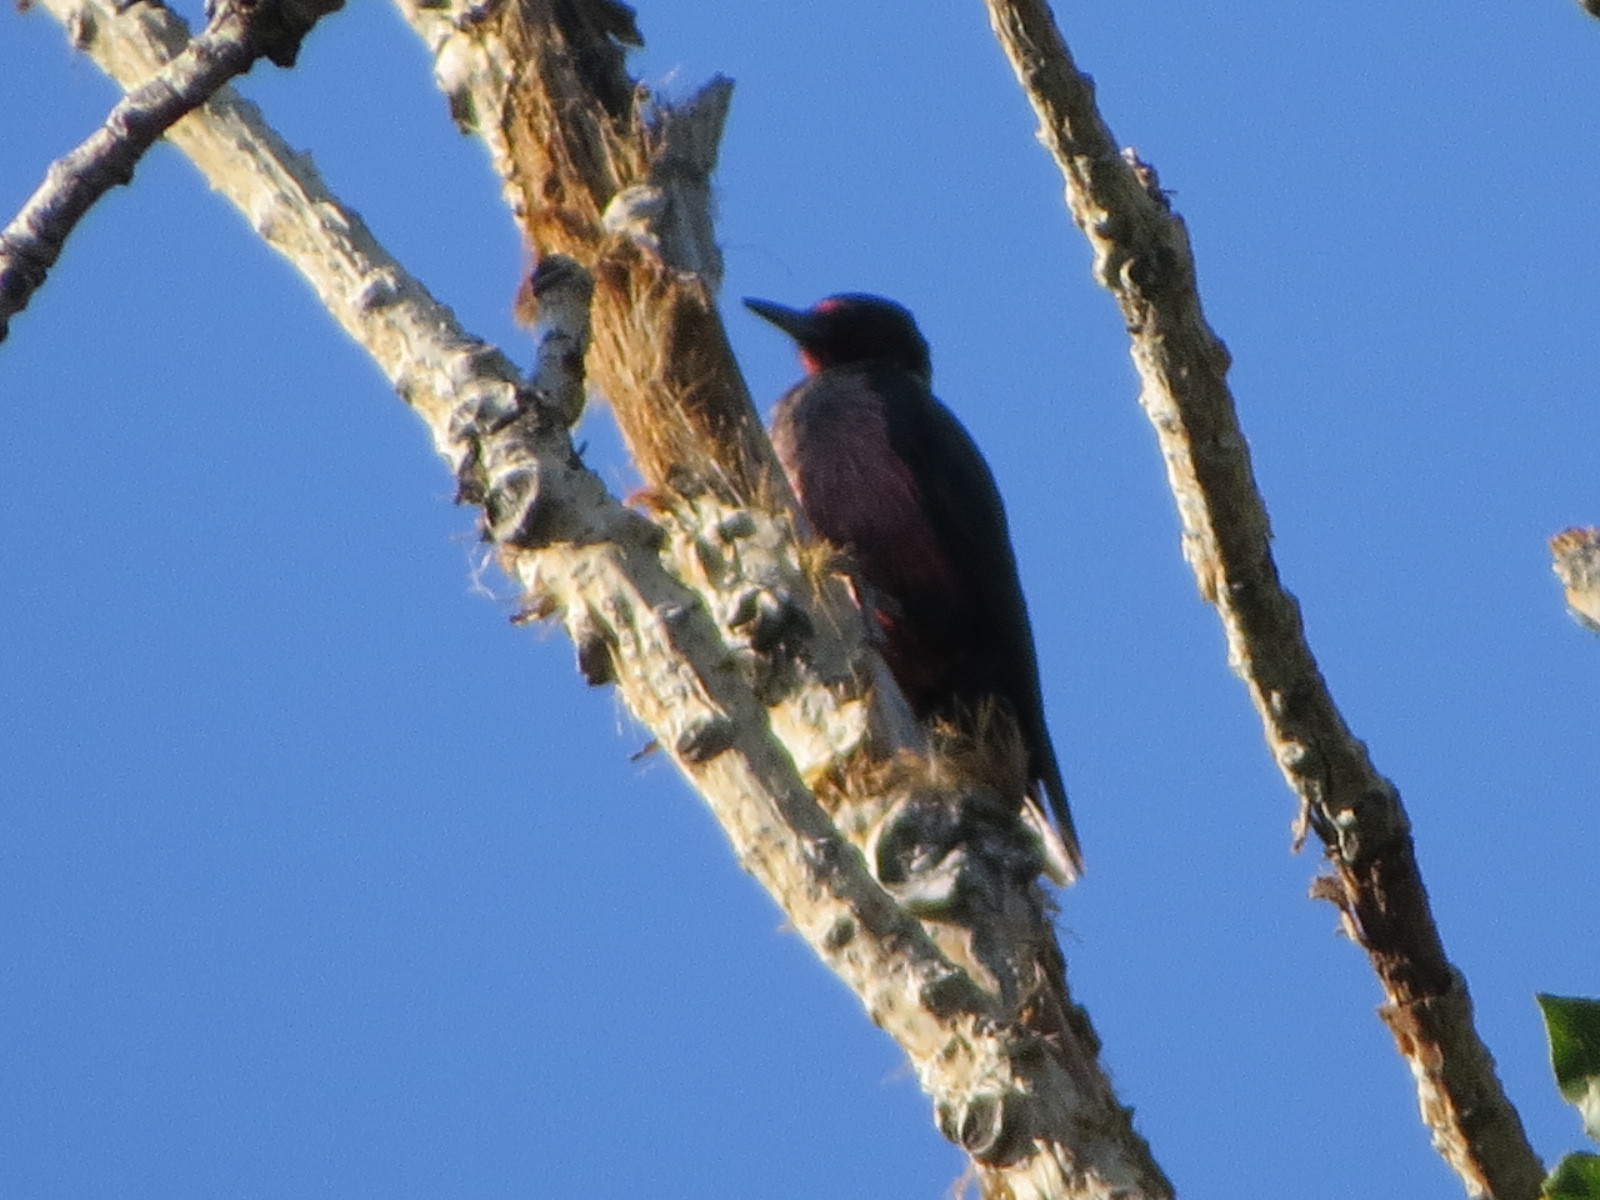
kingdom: Animalia
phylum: Chordata
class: Aves
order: Piciformes
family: Picidae
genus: Melanerpes
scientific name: Melanerpes lewis
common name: Lewis's woodpecker
